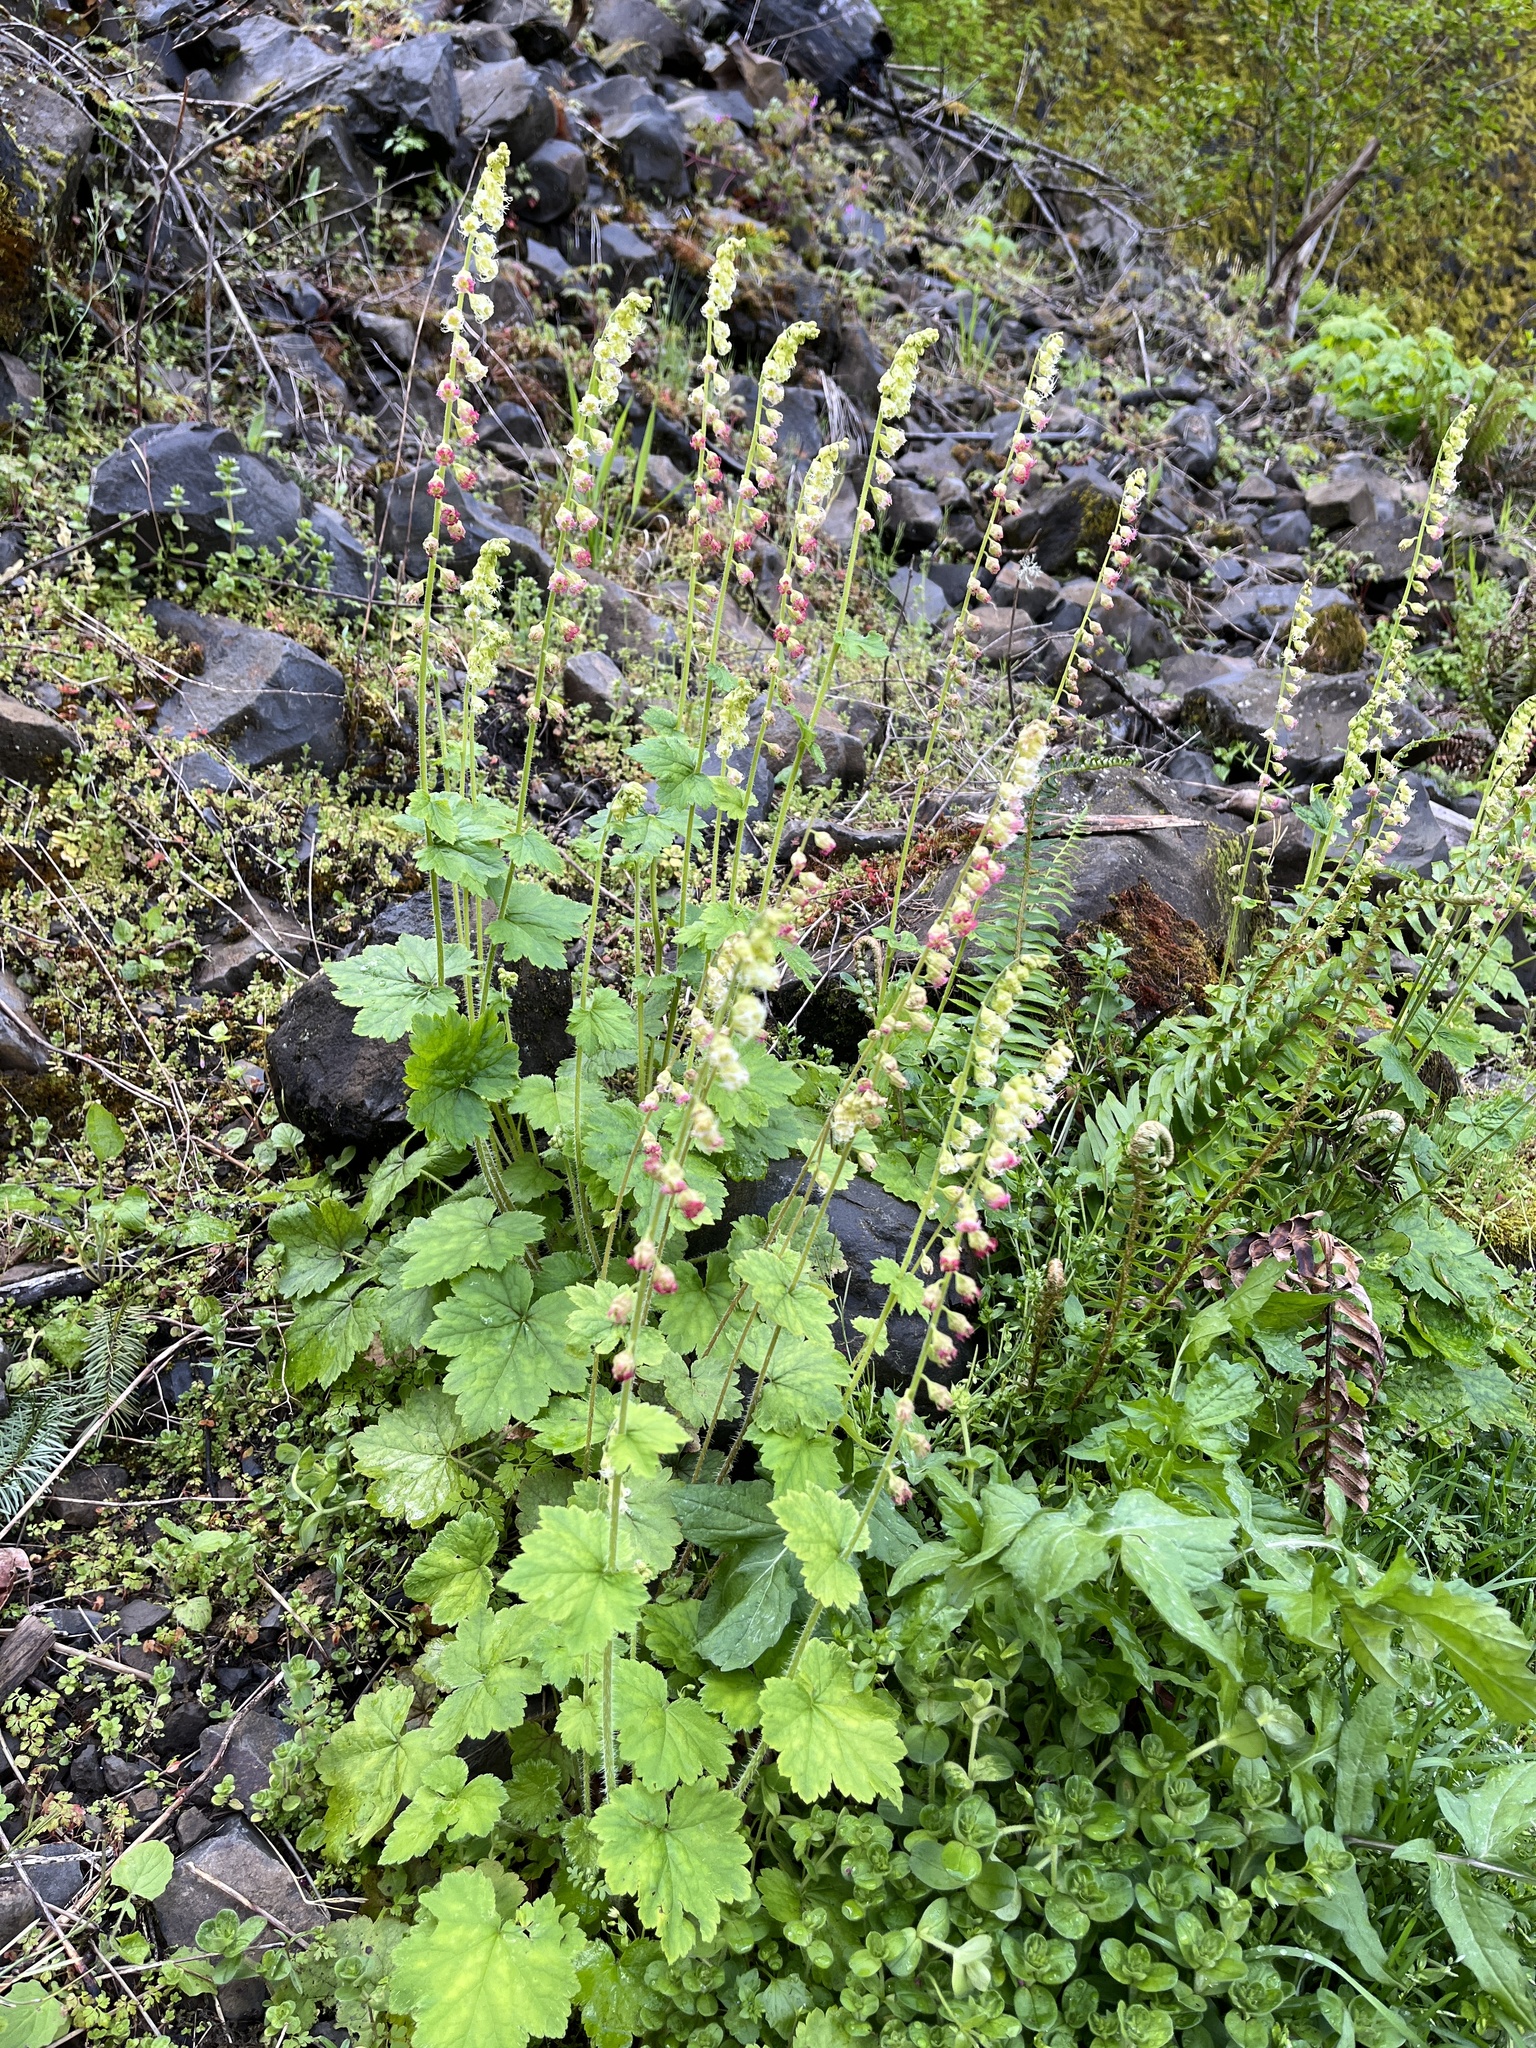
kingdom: Plantae
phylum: Tracheophyta
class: Magnoliopsida
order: Saxifragales
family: Saxifragaceae
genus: Tellima
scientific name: Tellima grandiflora
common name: Fringecups
